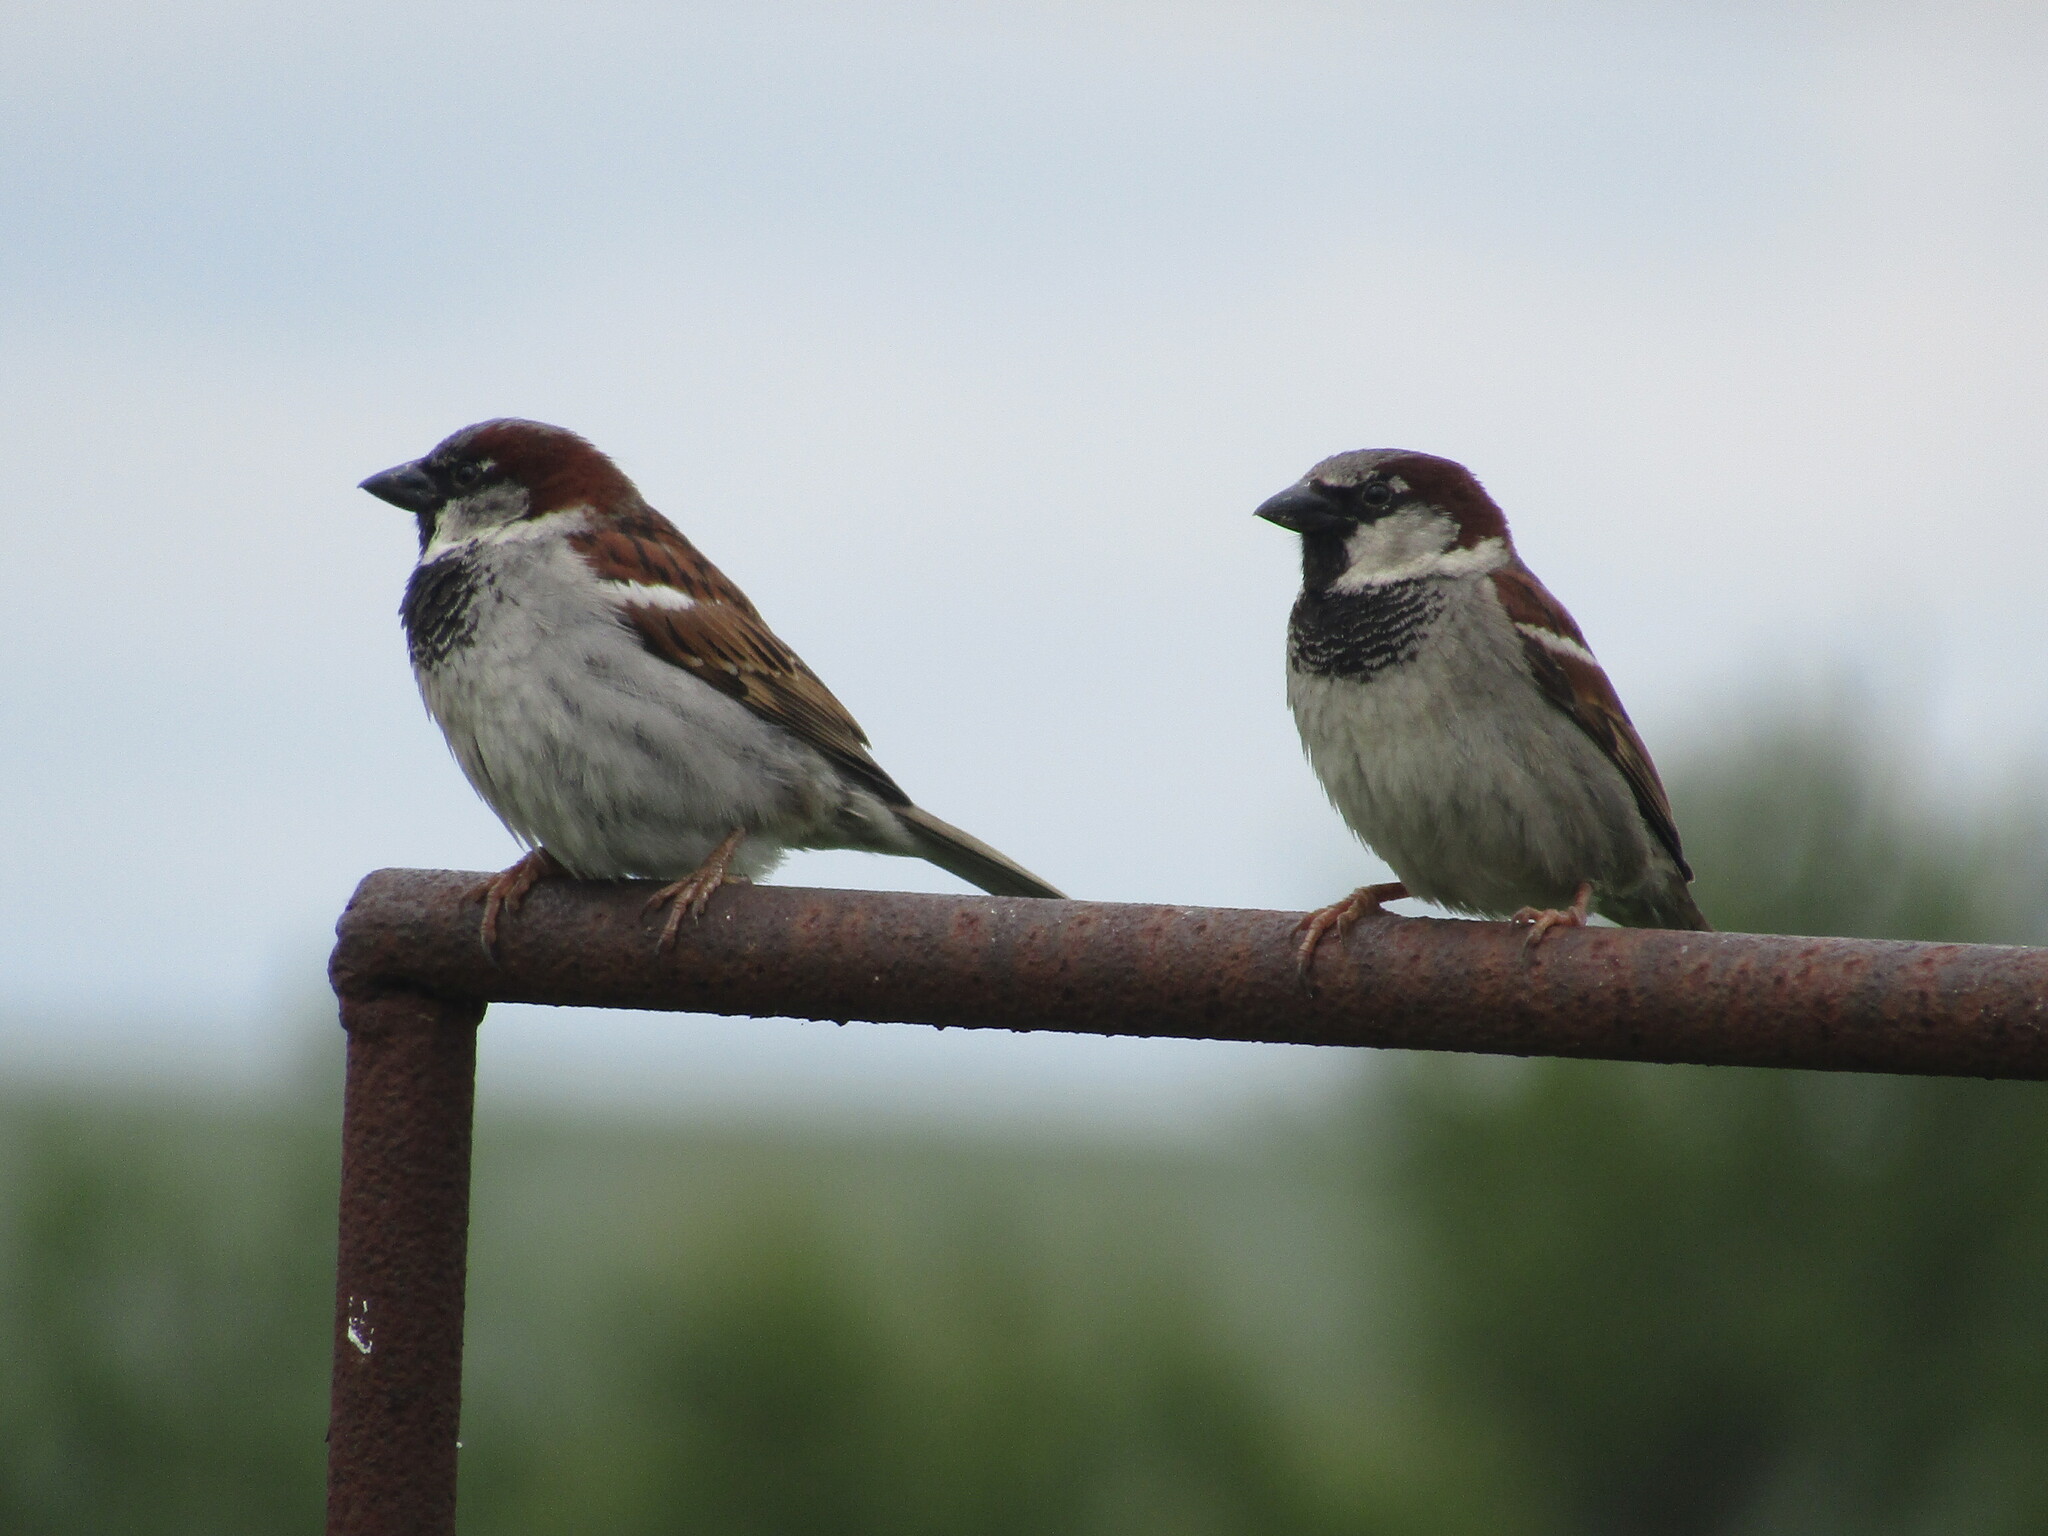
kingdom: Animalia
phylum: Chordata
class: Aves
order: Passeriformes
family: Passeridae
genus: Passer
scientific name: Passer domesticus
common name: House sparrow
